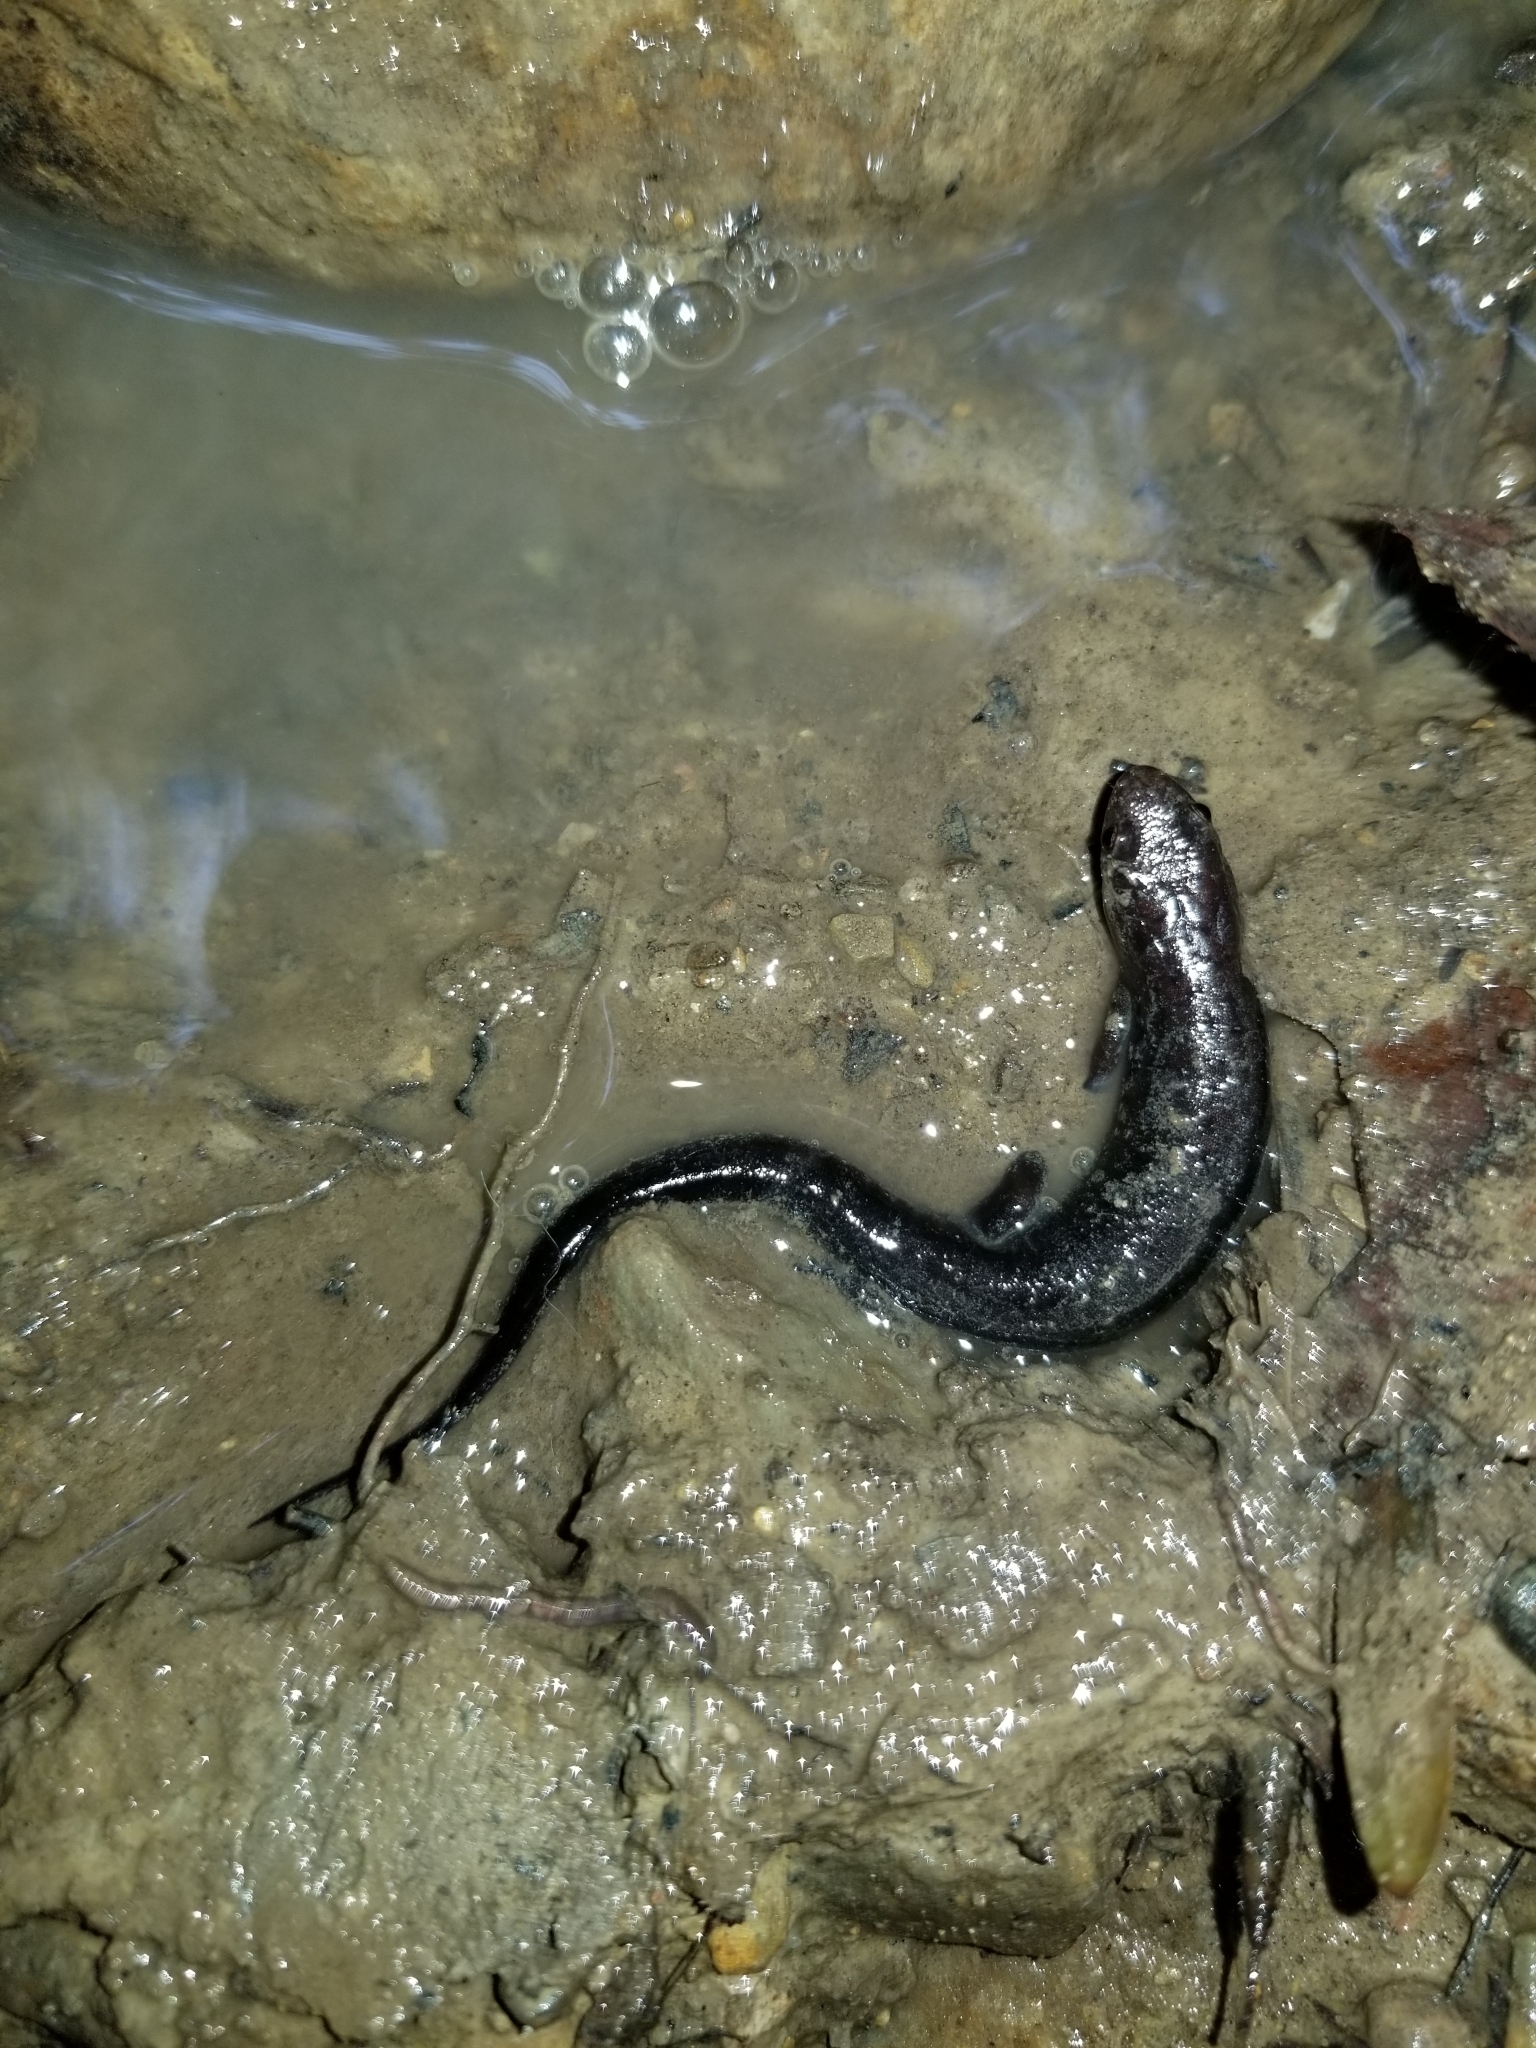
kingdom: Animalia
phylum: Chordata
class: Amphibia
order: Caudata
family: Plethodontidae
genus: Desmognathus
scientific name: Desmognathus ochrophaeus
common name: Allegheny mountain dusky salamander
